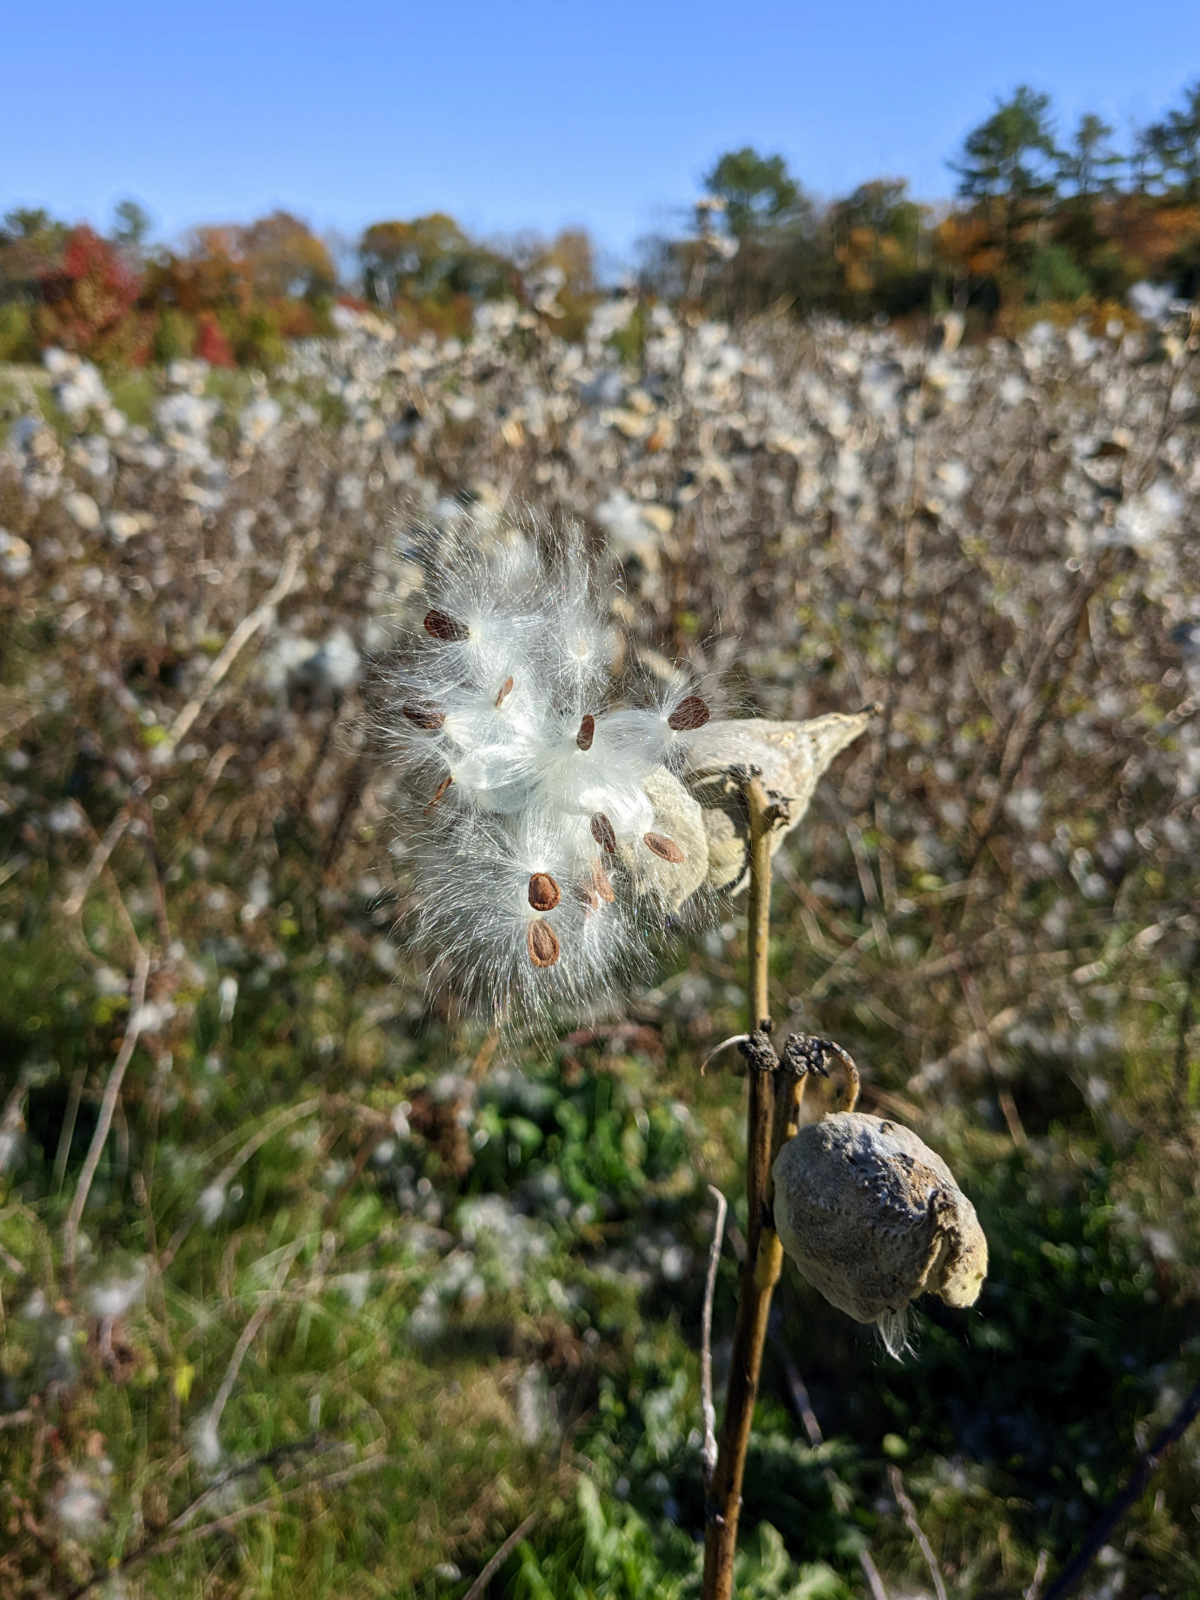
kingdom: Plantae
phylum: Tracheophyta
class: Magnoliopsida
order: Gentianales
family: Apocynaceae
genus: Asclepias
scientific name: Asclepias syriaca
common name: Common milkweed
